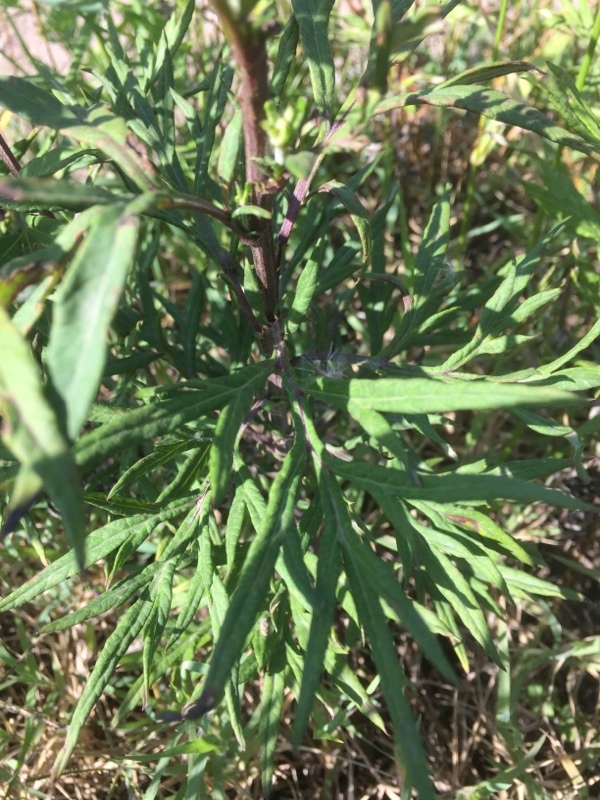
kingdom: Plantae
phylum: Tracheophyta
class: Magnoliopsida
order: Asterales
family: Asteraceae
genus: Artemisia
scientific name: Artemisia verlotiorum
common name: Chinese mugwort
